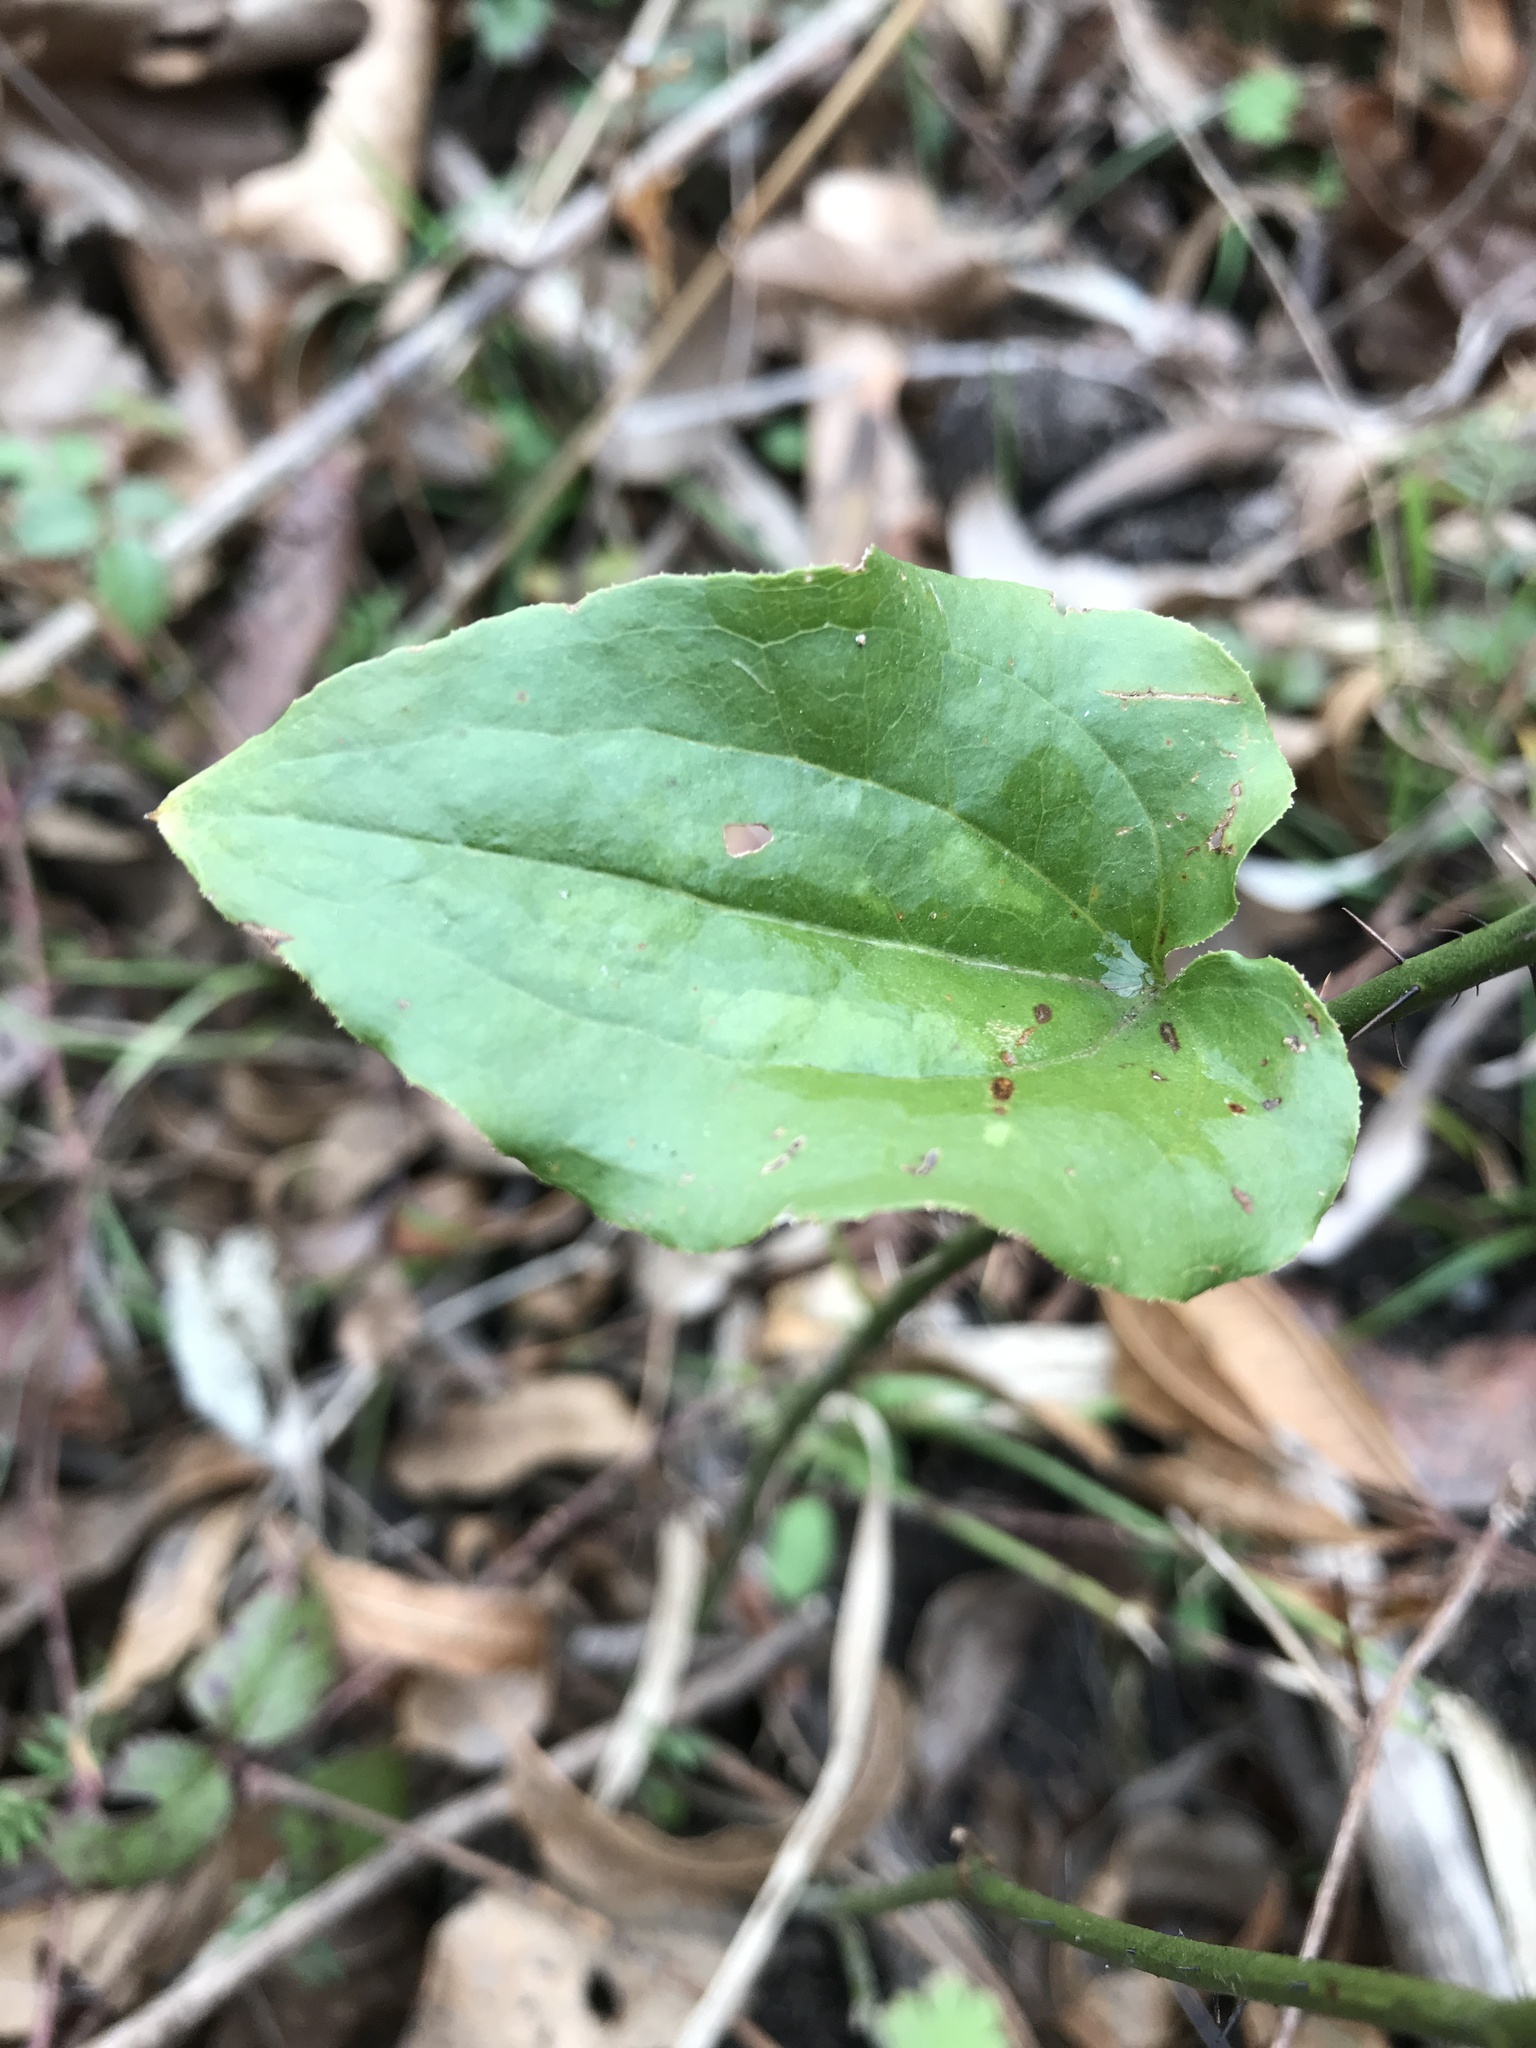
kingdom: Plantae
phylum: Tracheophyta
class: Liliopsida
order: Liliales
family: Smilacaceae
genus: Smilax
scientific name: Smilax tamnoides
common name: Hellfetter
